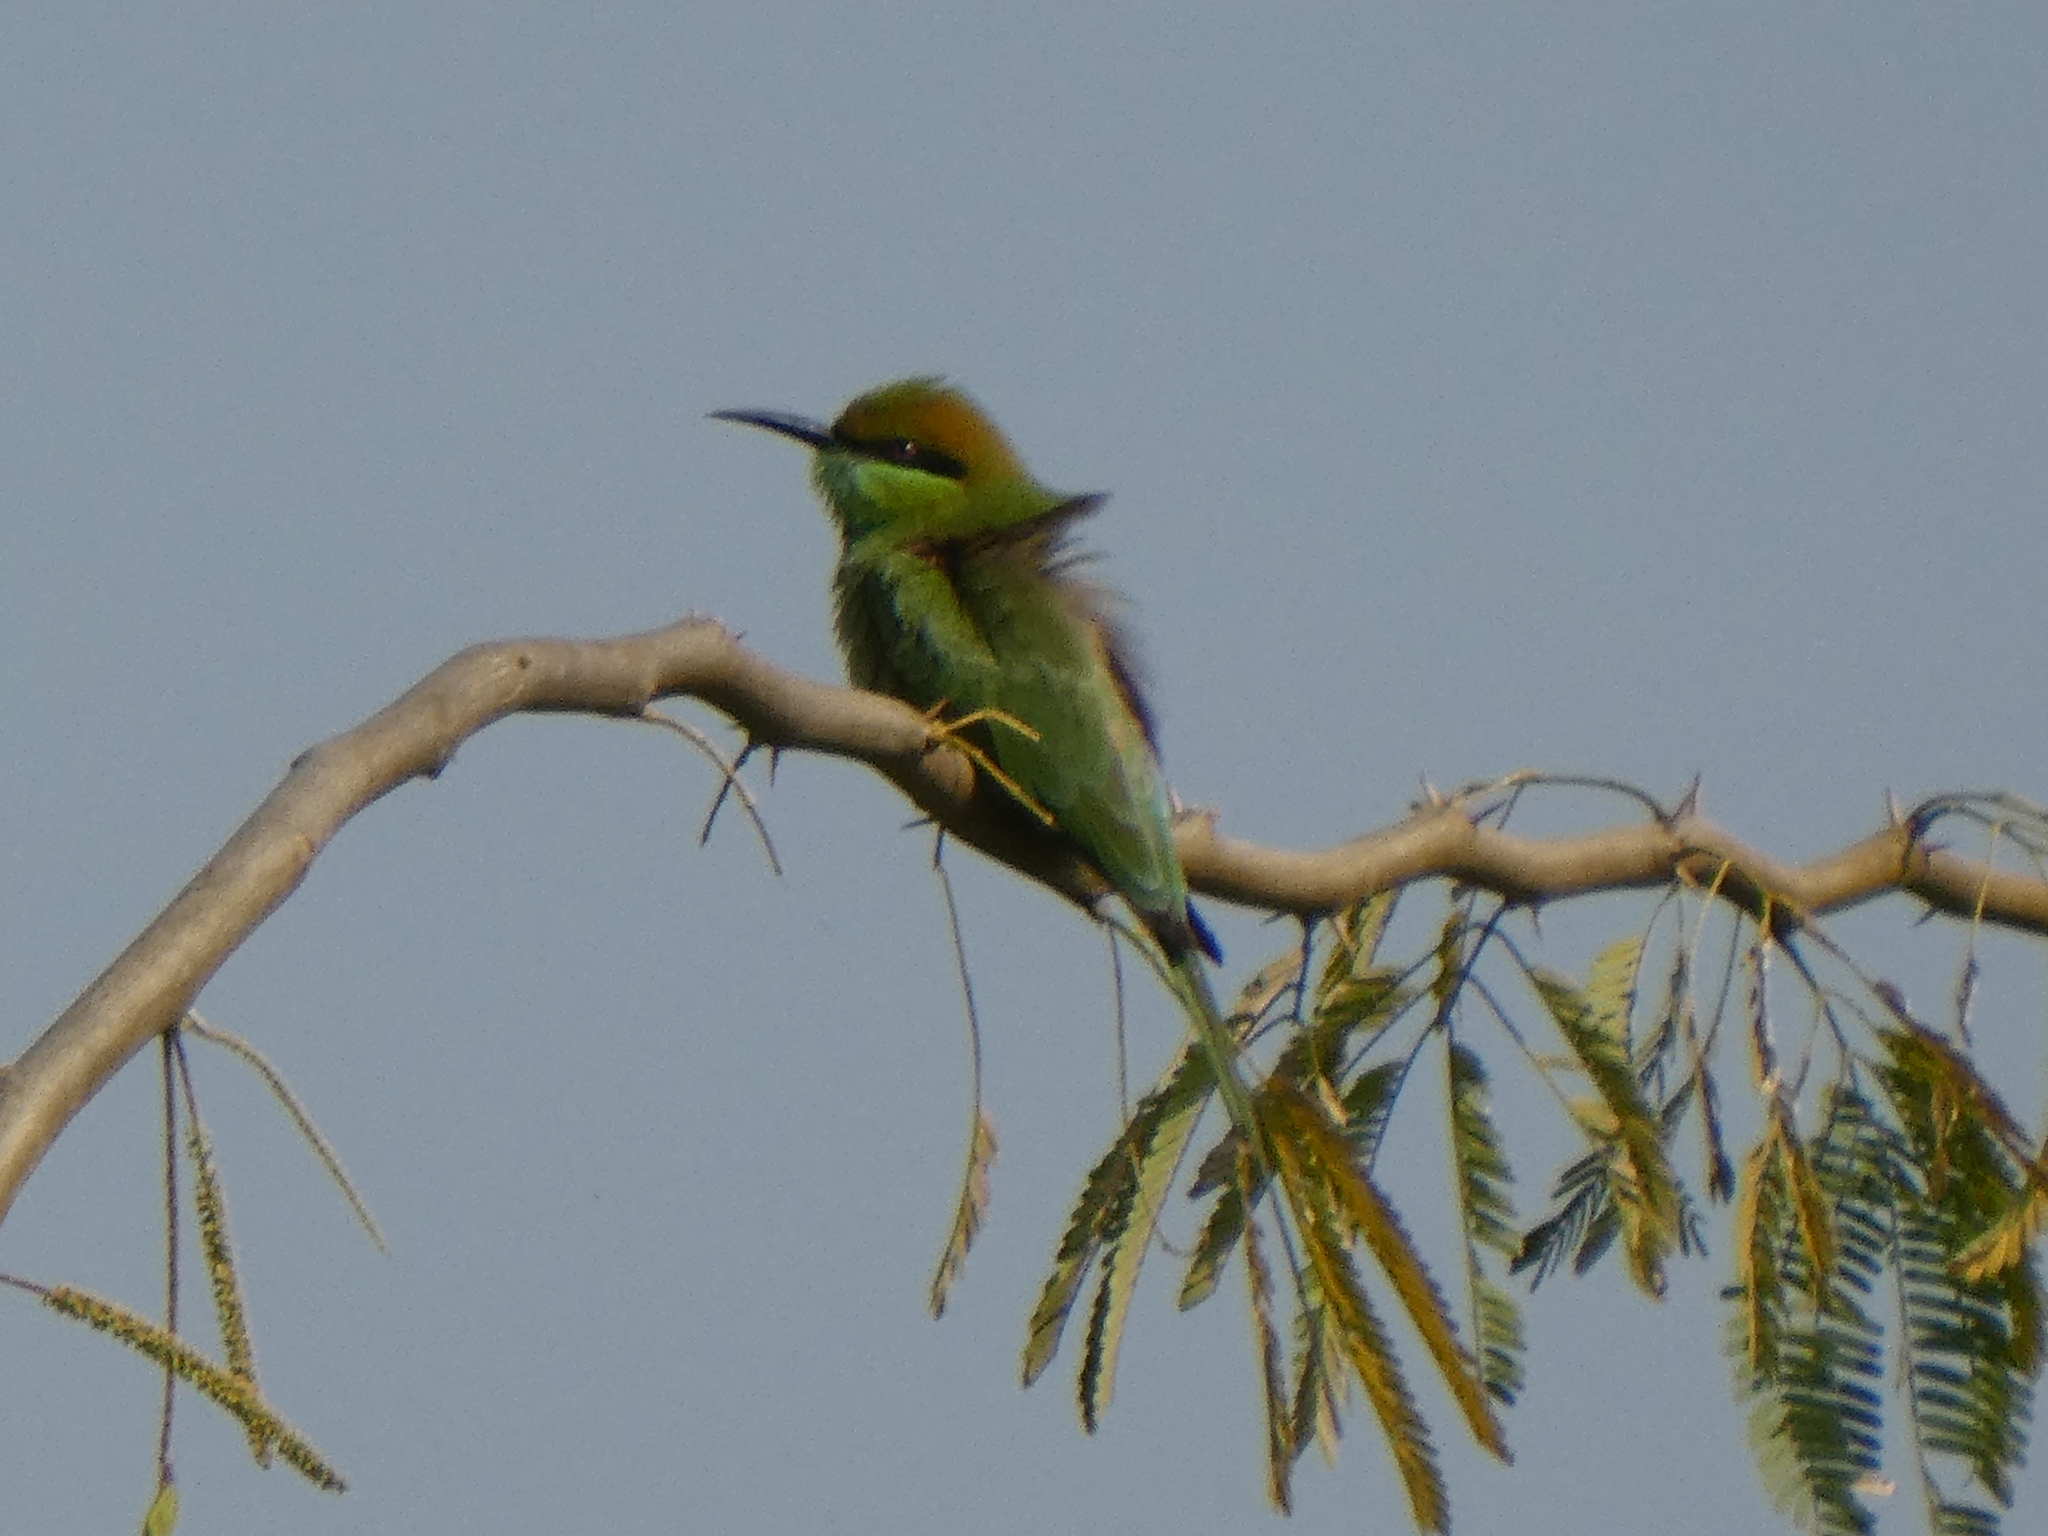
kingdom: Animalia
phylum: Chordata
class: Aves
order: Coraciiformes
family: Meropidae
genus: Merops
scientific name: Merops orientalis
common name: Green bee-eater
